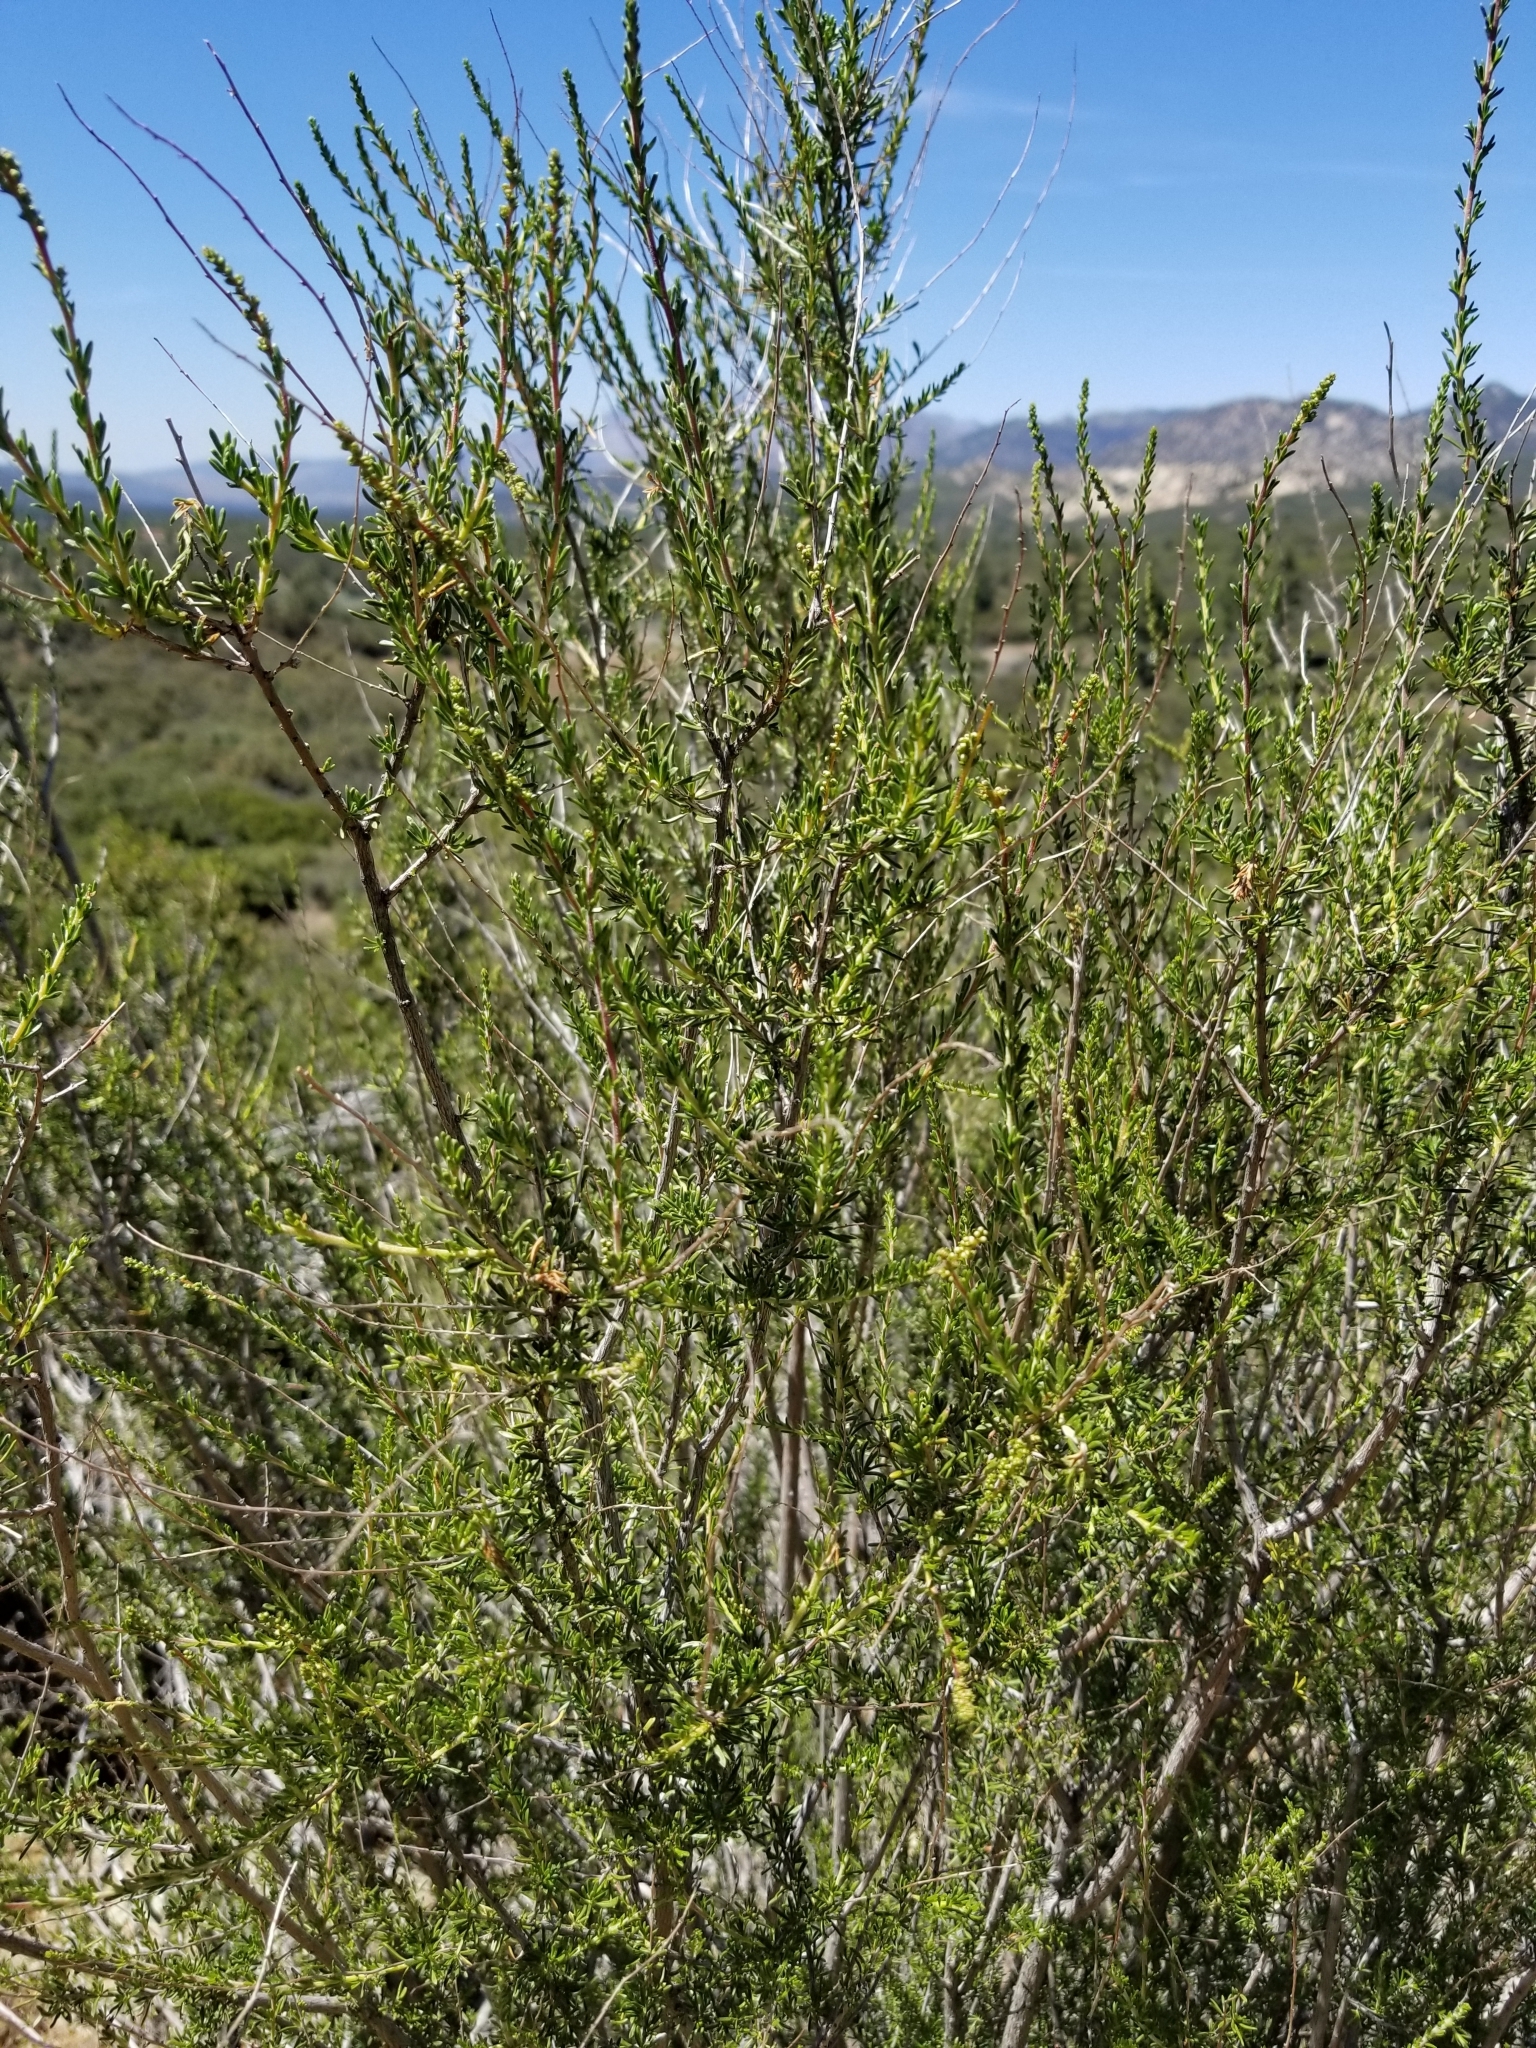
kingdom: Plantae
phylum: Tracheophyta
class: Magnoliopsida
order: Rosales
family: Rosaceae
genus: Adenostoma
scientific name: Adenostoma fasciculatum
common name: Chamise
